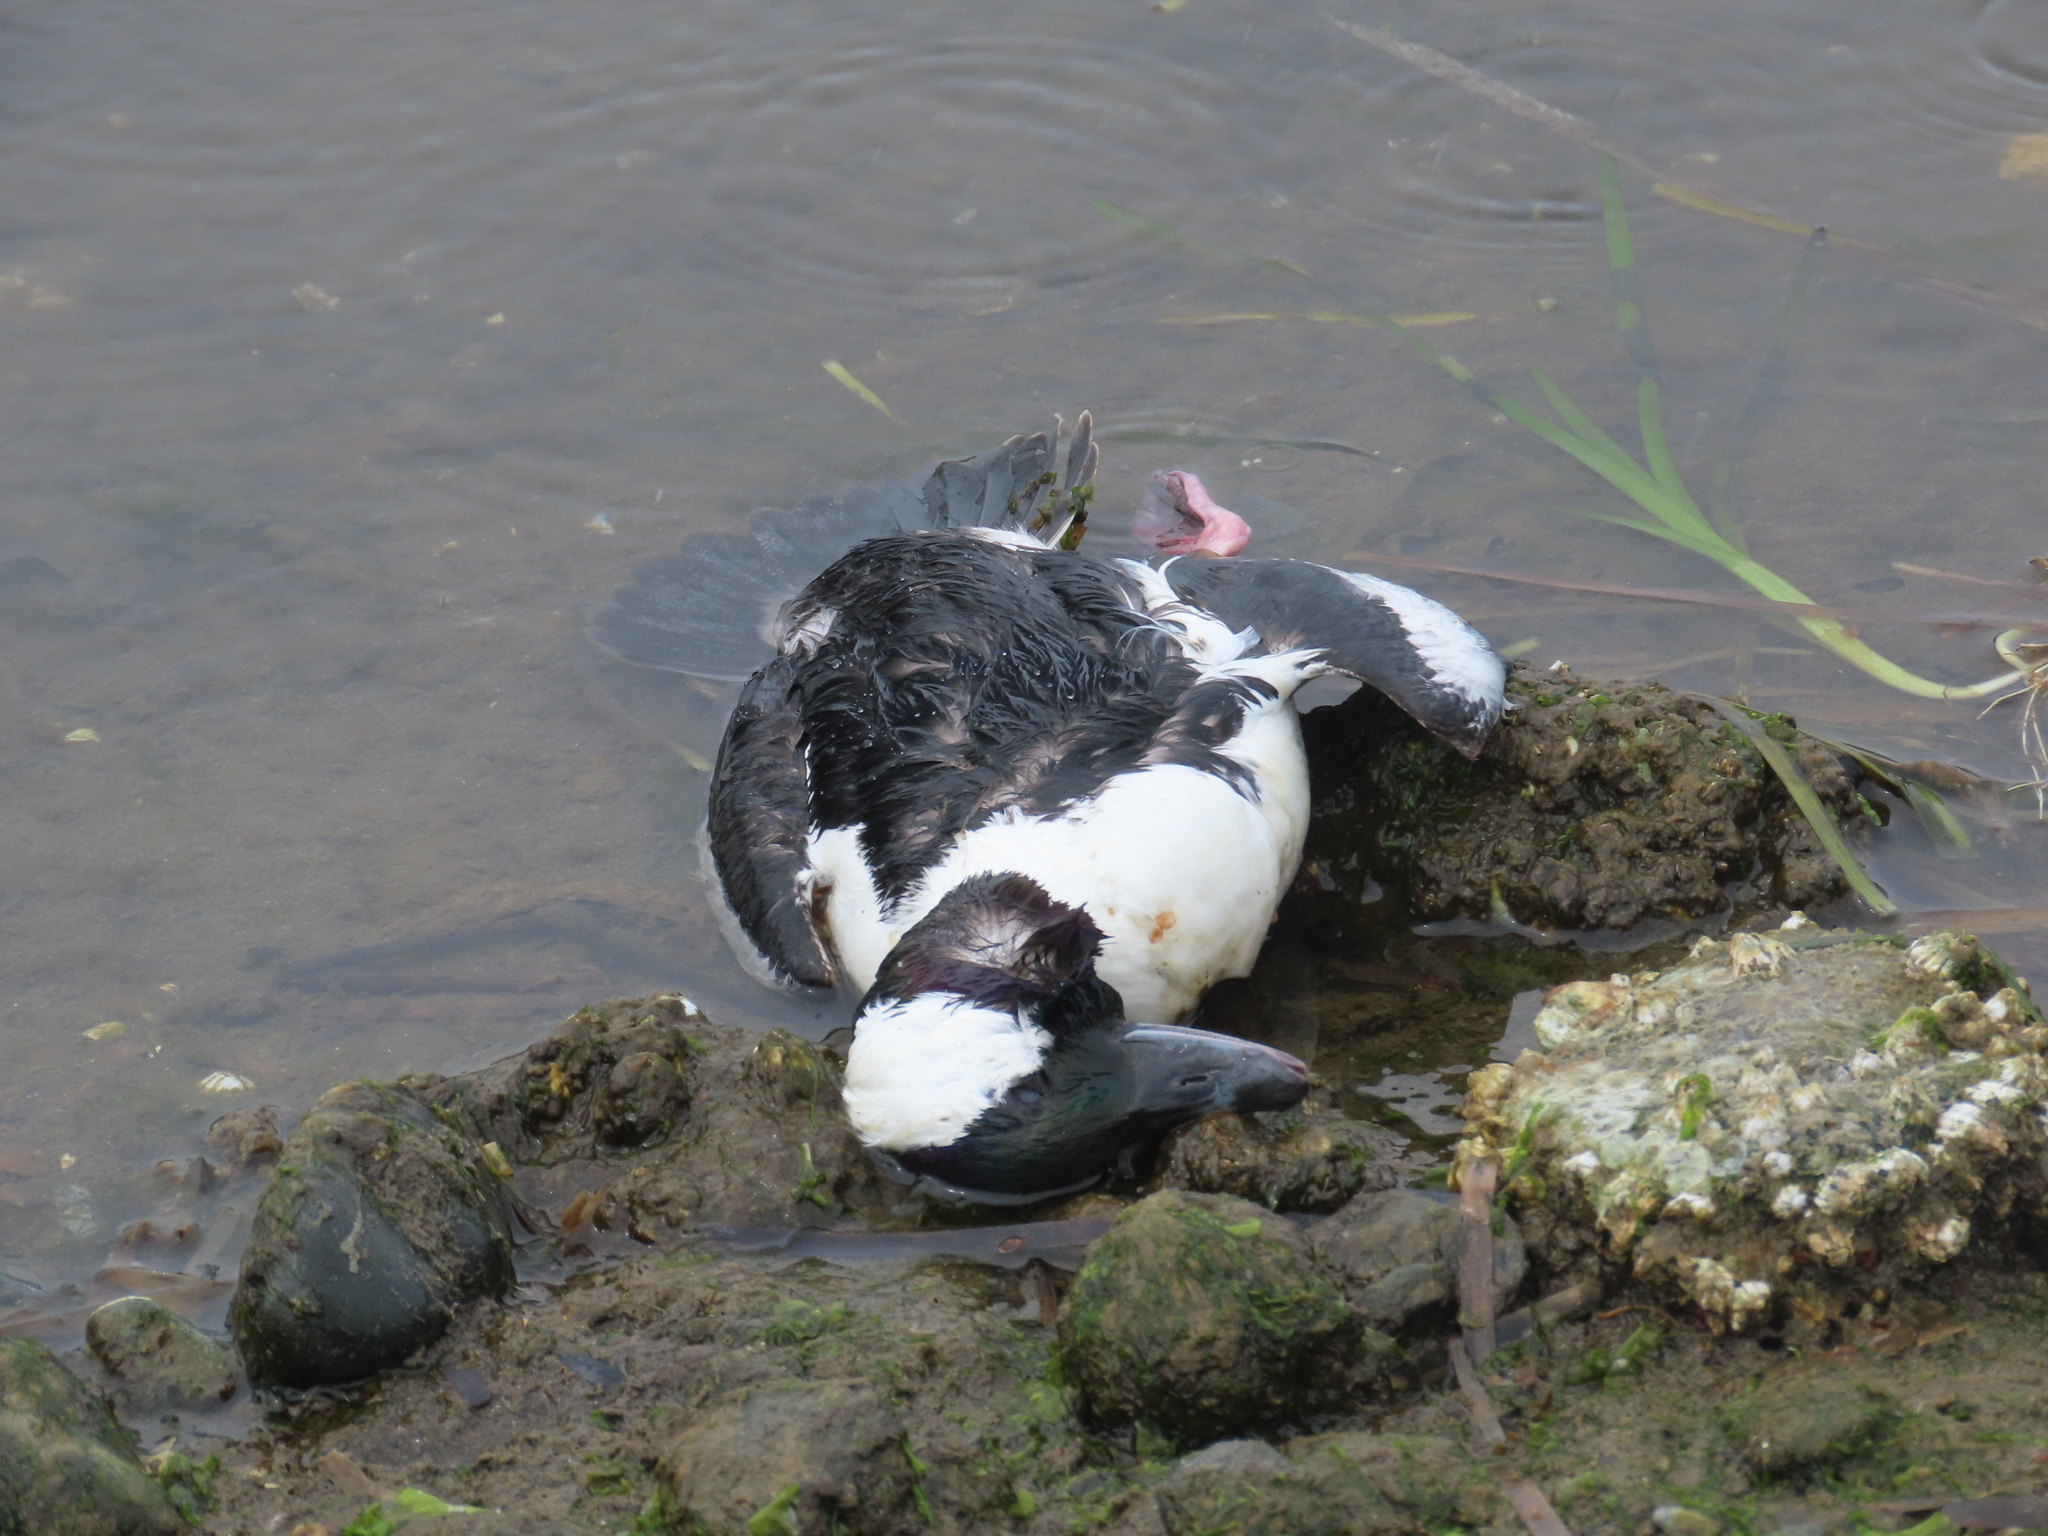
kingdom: Animalia
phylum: Chordata
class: Aves
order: Anseriformes
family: Anatidae
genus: Bucephala
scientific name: Bucephala albeola
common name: Bufflehead
